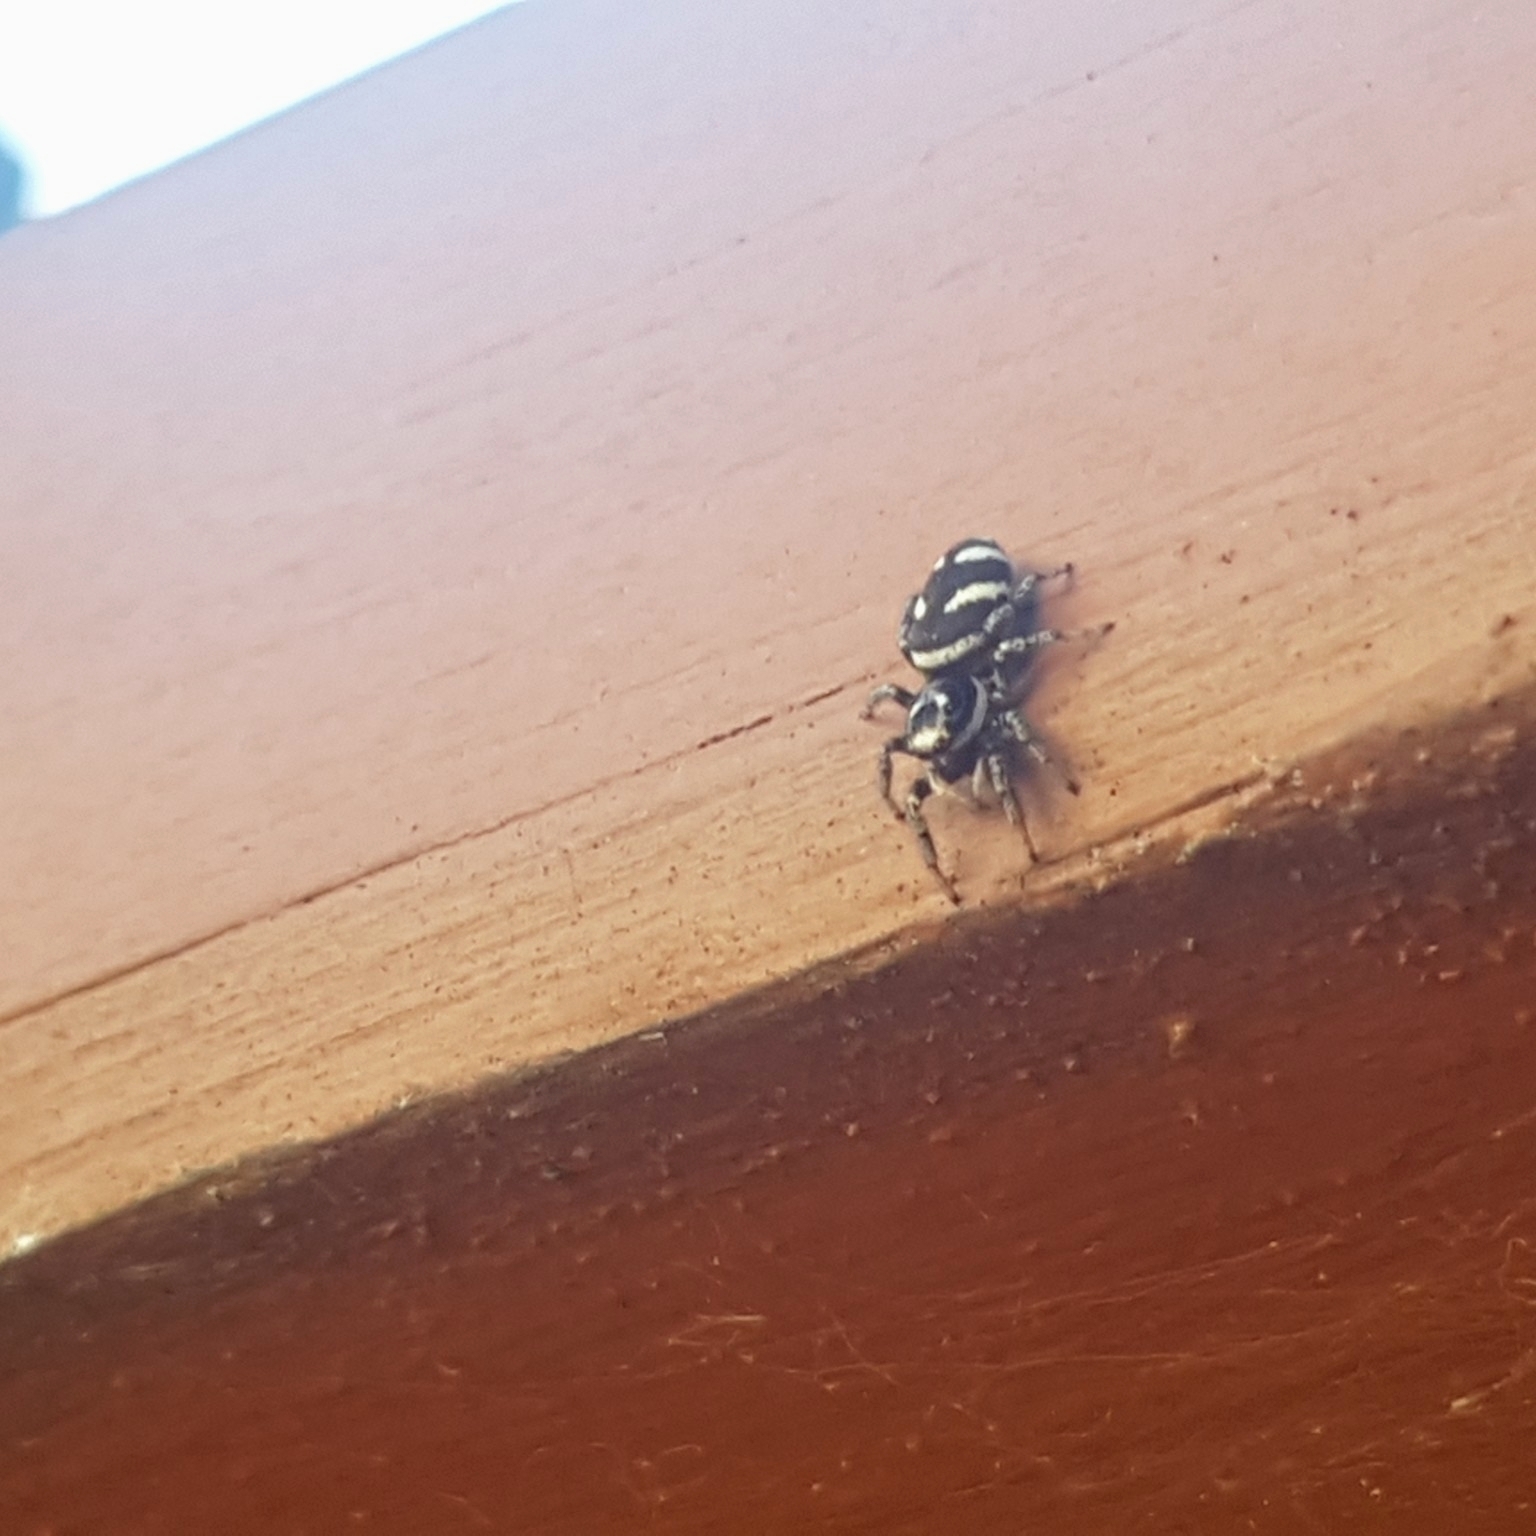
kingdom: Animalia
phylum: Arthropoda
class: Arachnida
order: Araneae
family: Salticidae
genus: Salticus
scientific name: Salticus scenicus
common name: Zebra jumper
